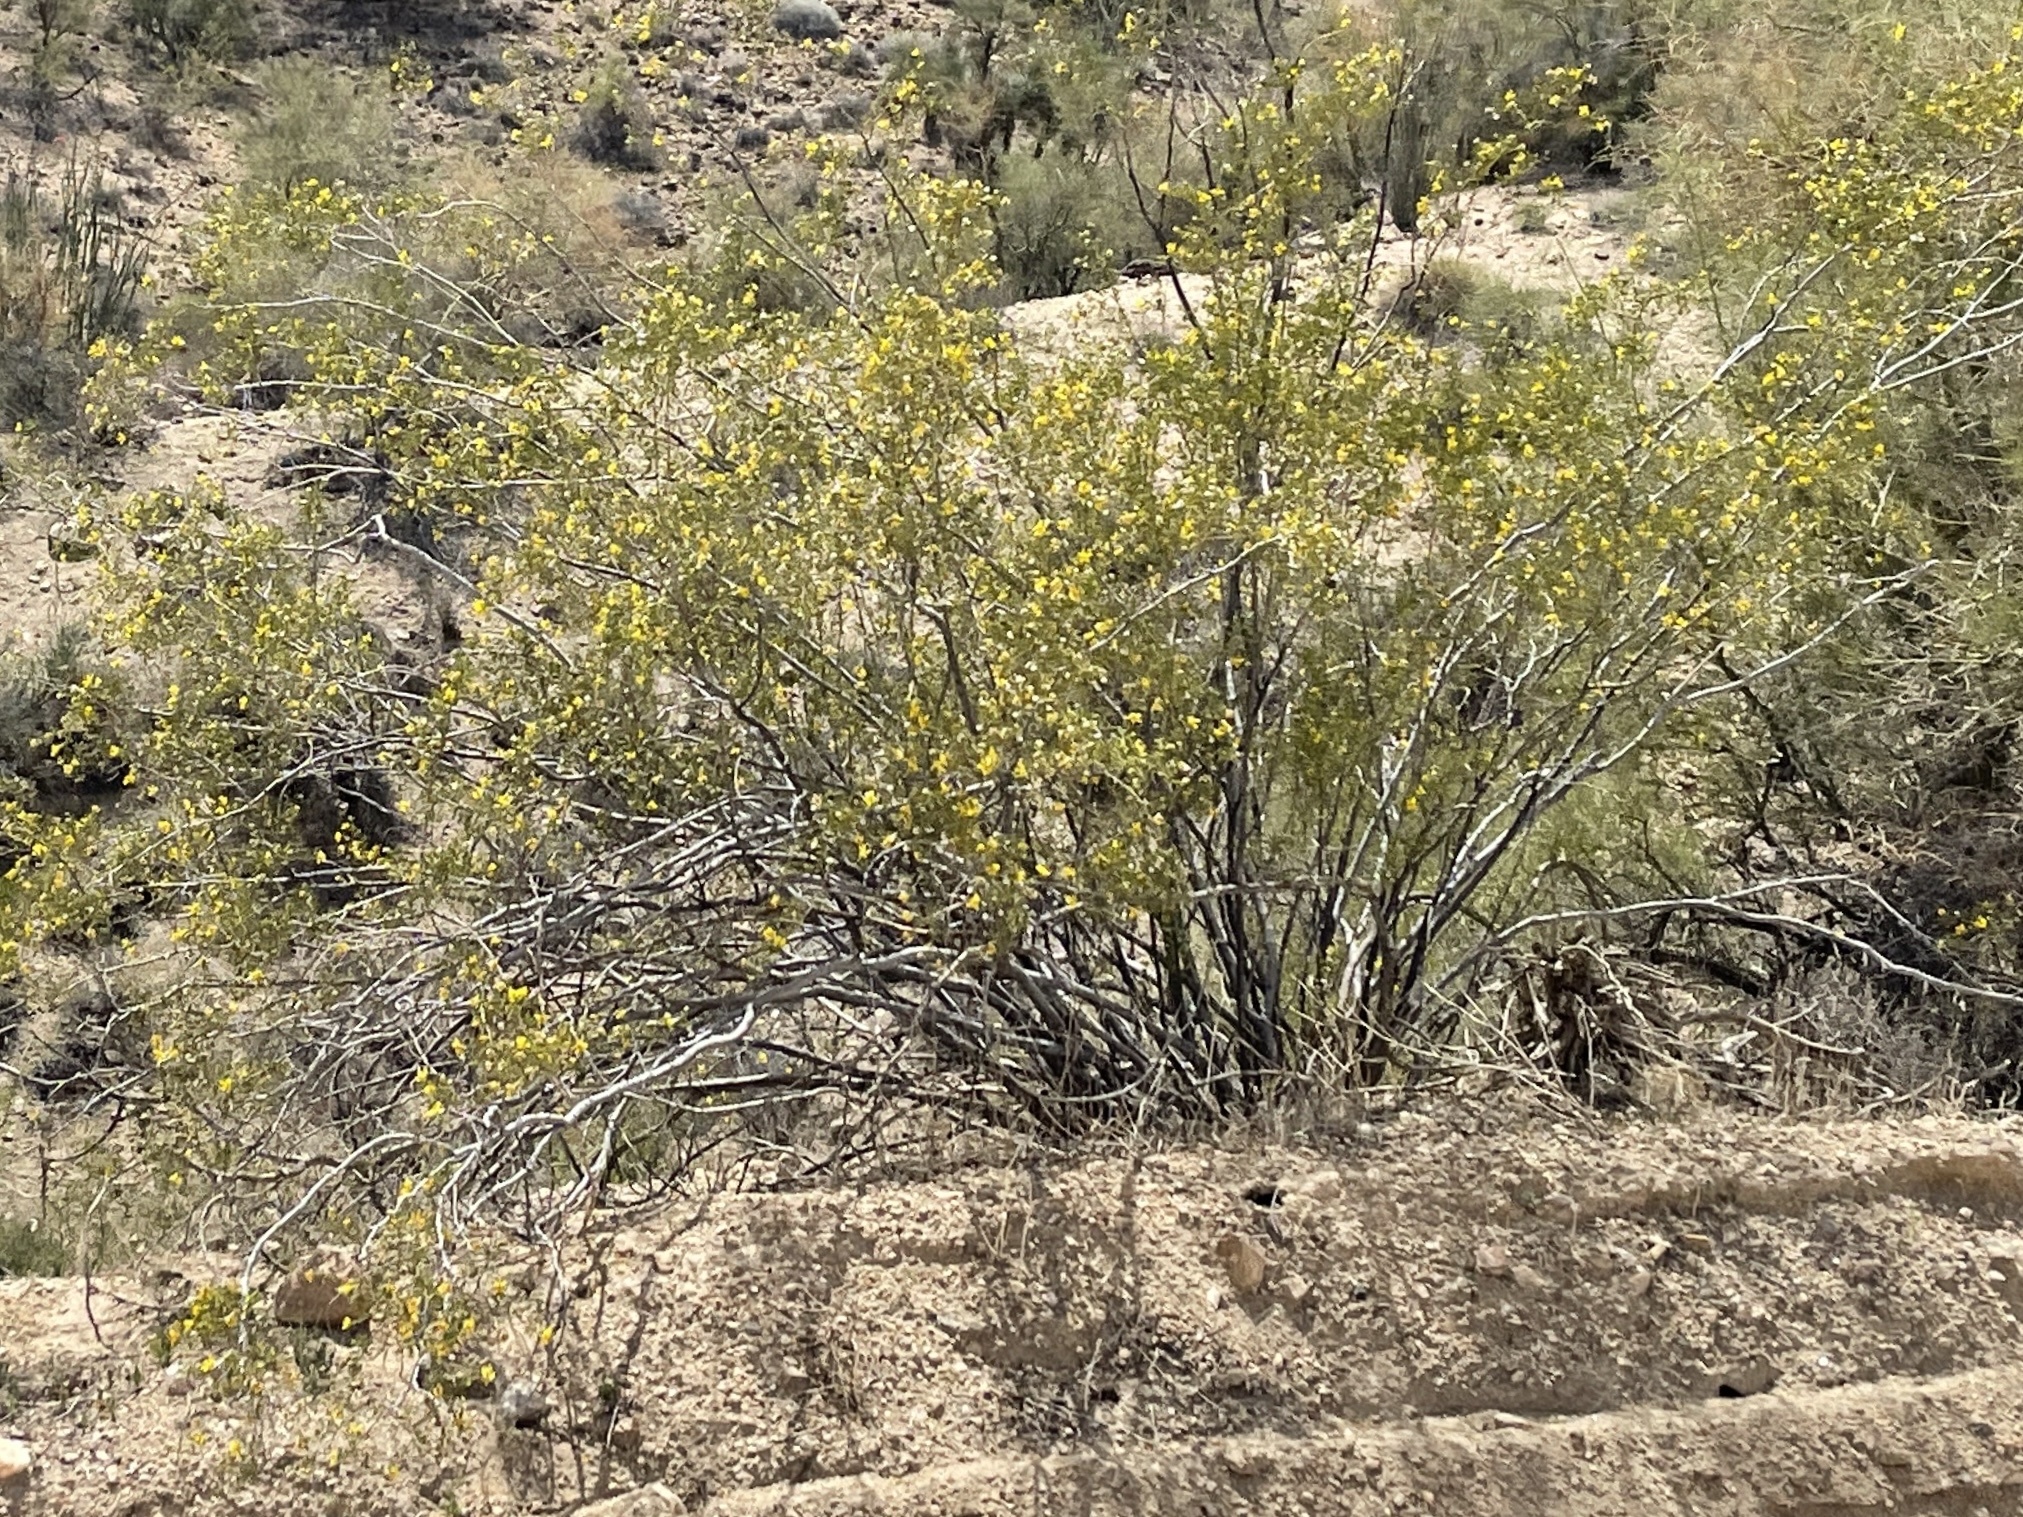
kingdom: Plantae
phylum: Tracheophyta
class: Magnoliopsida
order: Zygophyllales
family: Zygophyllaceae
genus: Larrea
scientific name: Larrea tridentata
